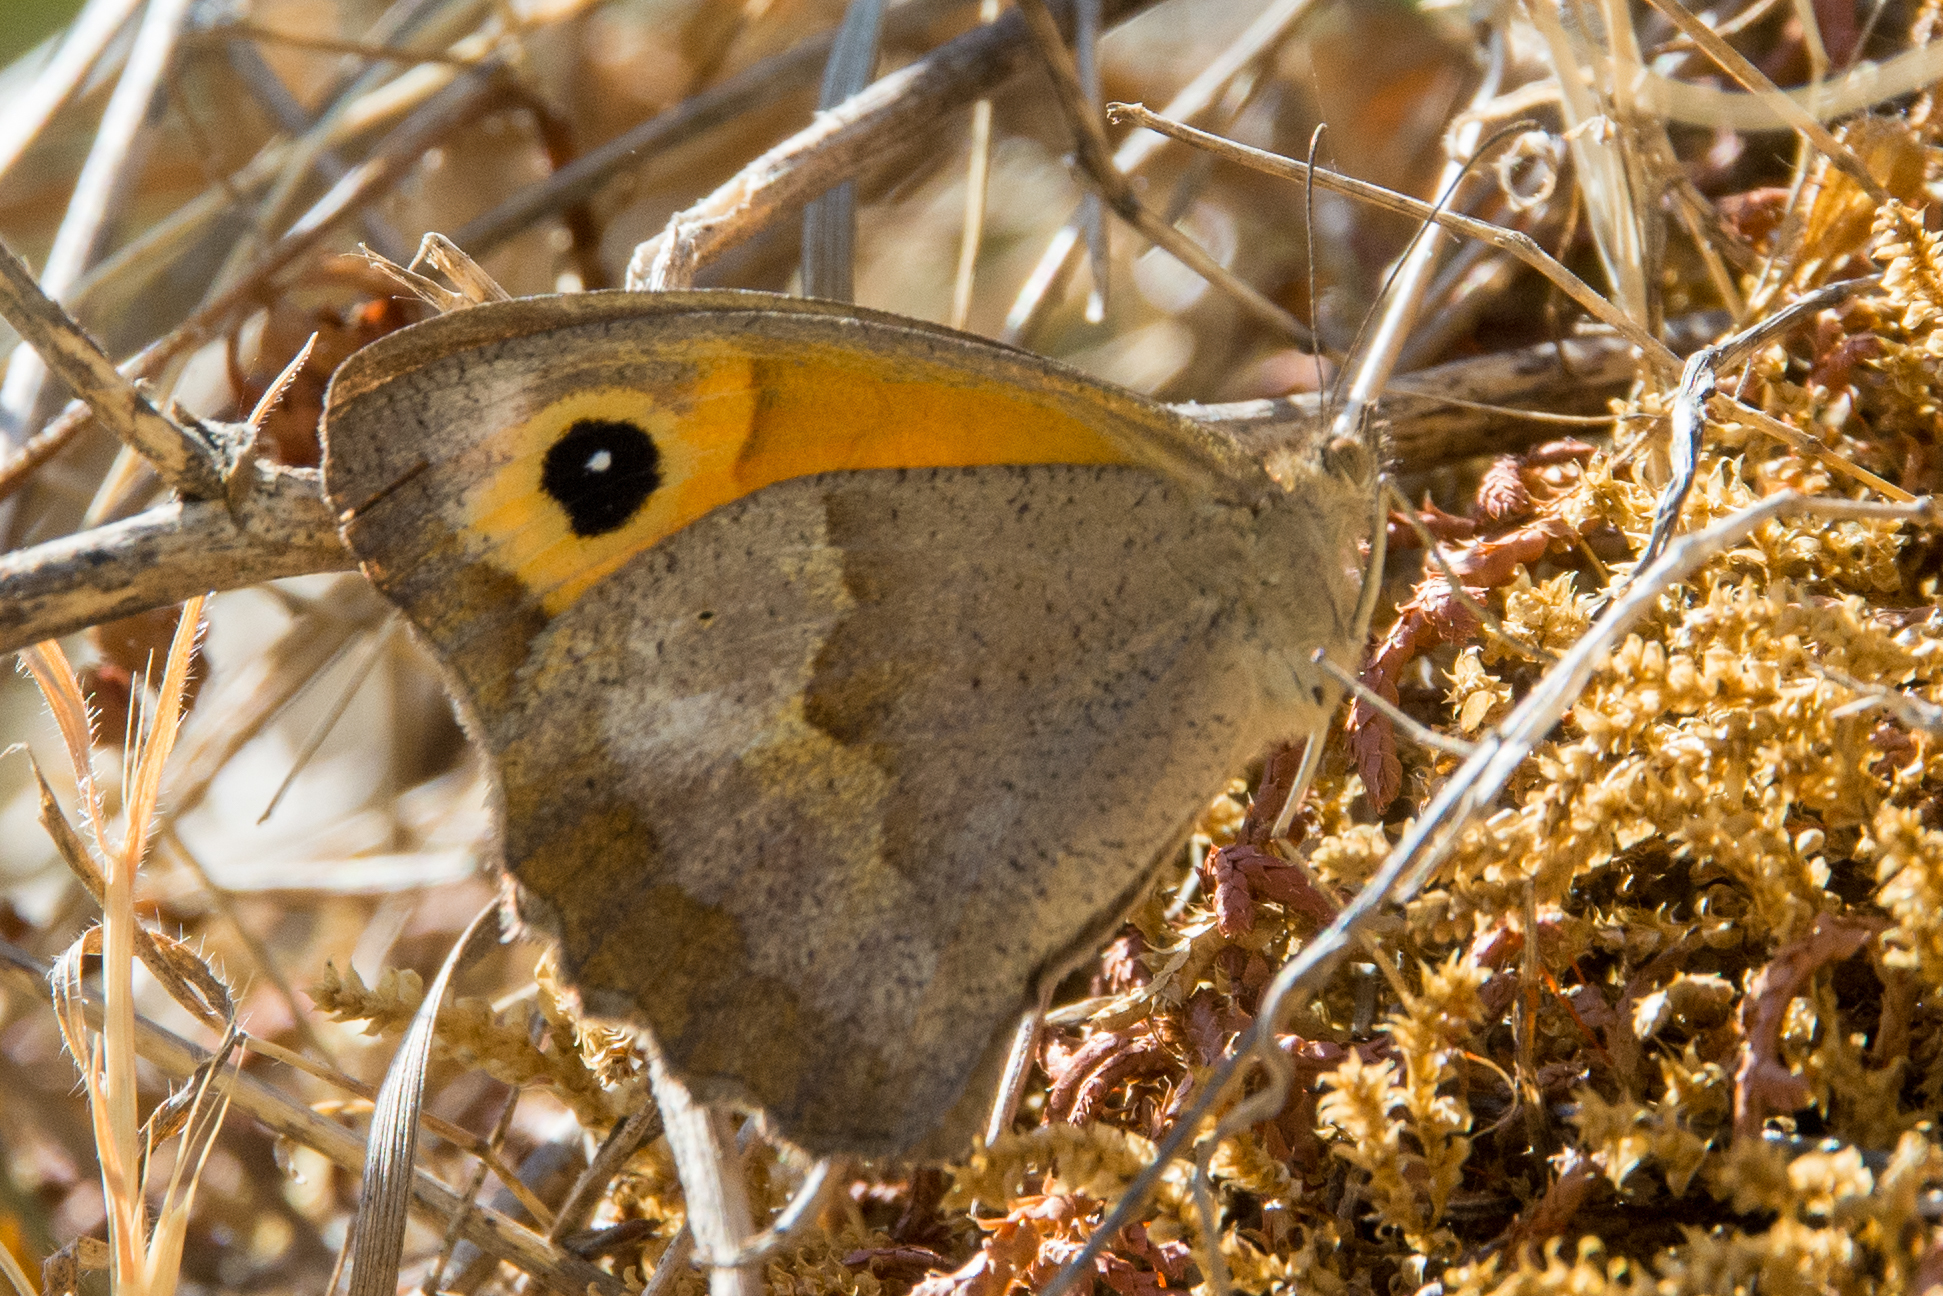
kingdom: Animalia
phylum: Arthropoda
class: Insecta
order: Lepidoptera
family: Nymphalidae
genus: Maniola
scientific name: Maniola jurtina
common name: Meadow brown
